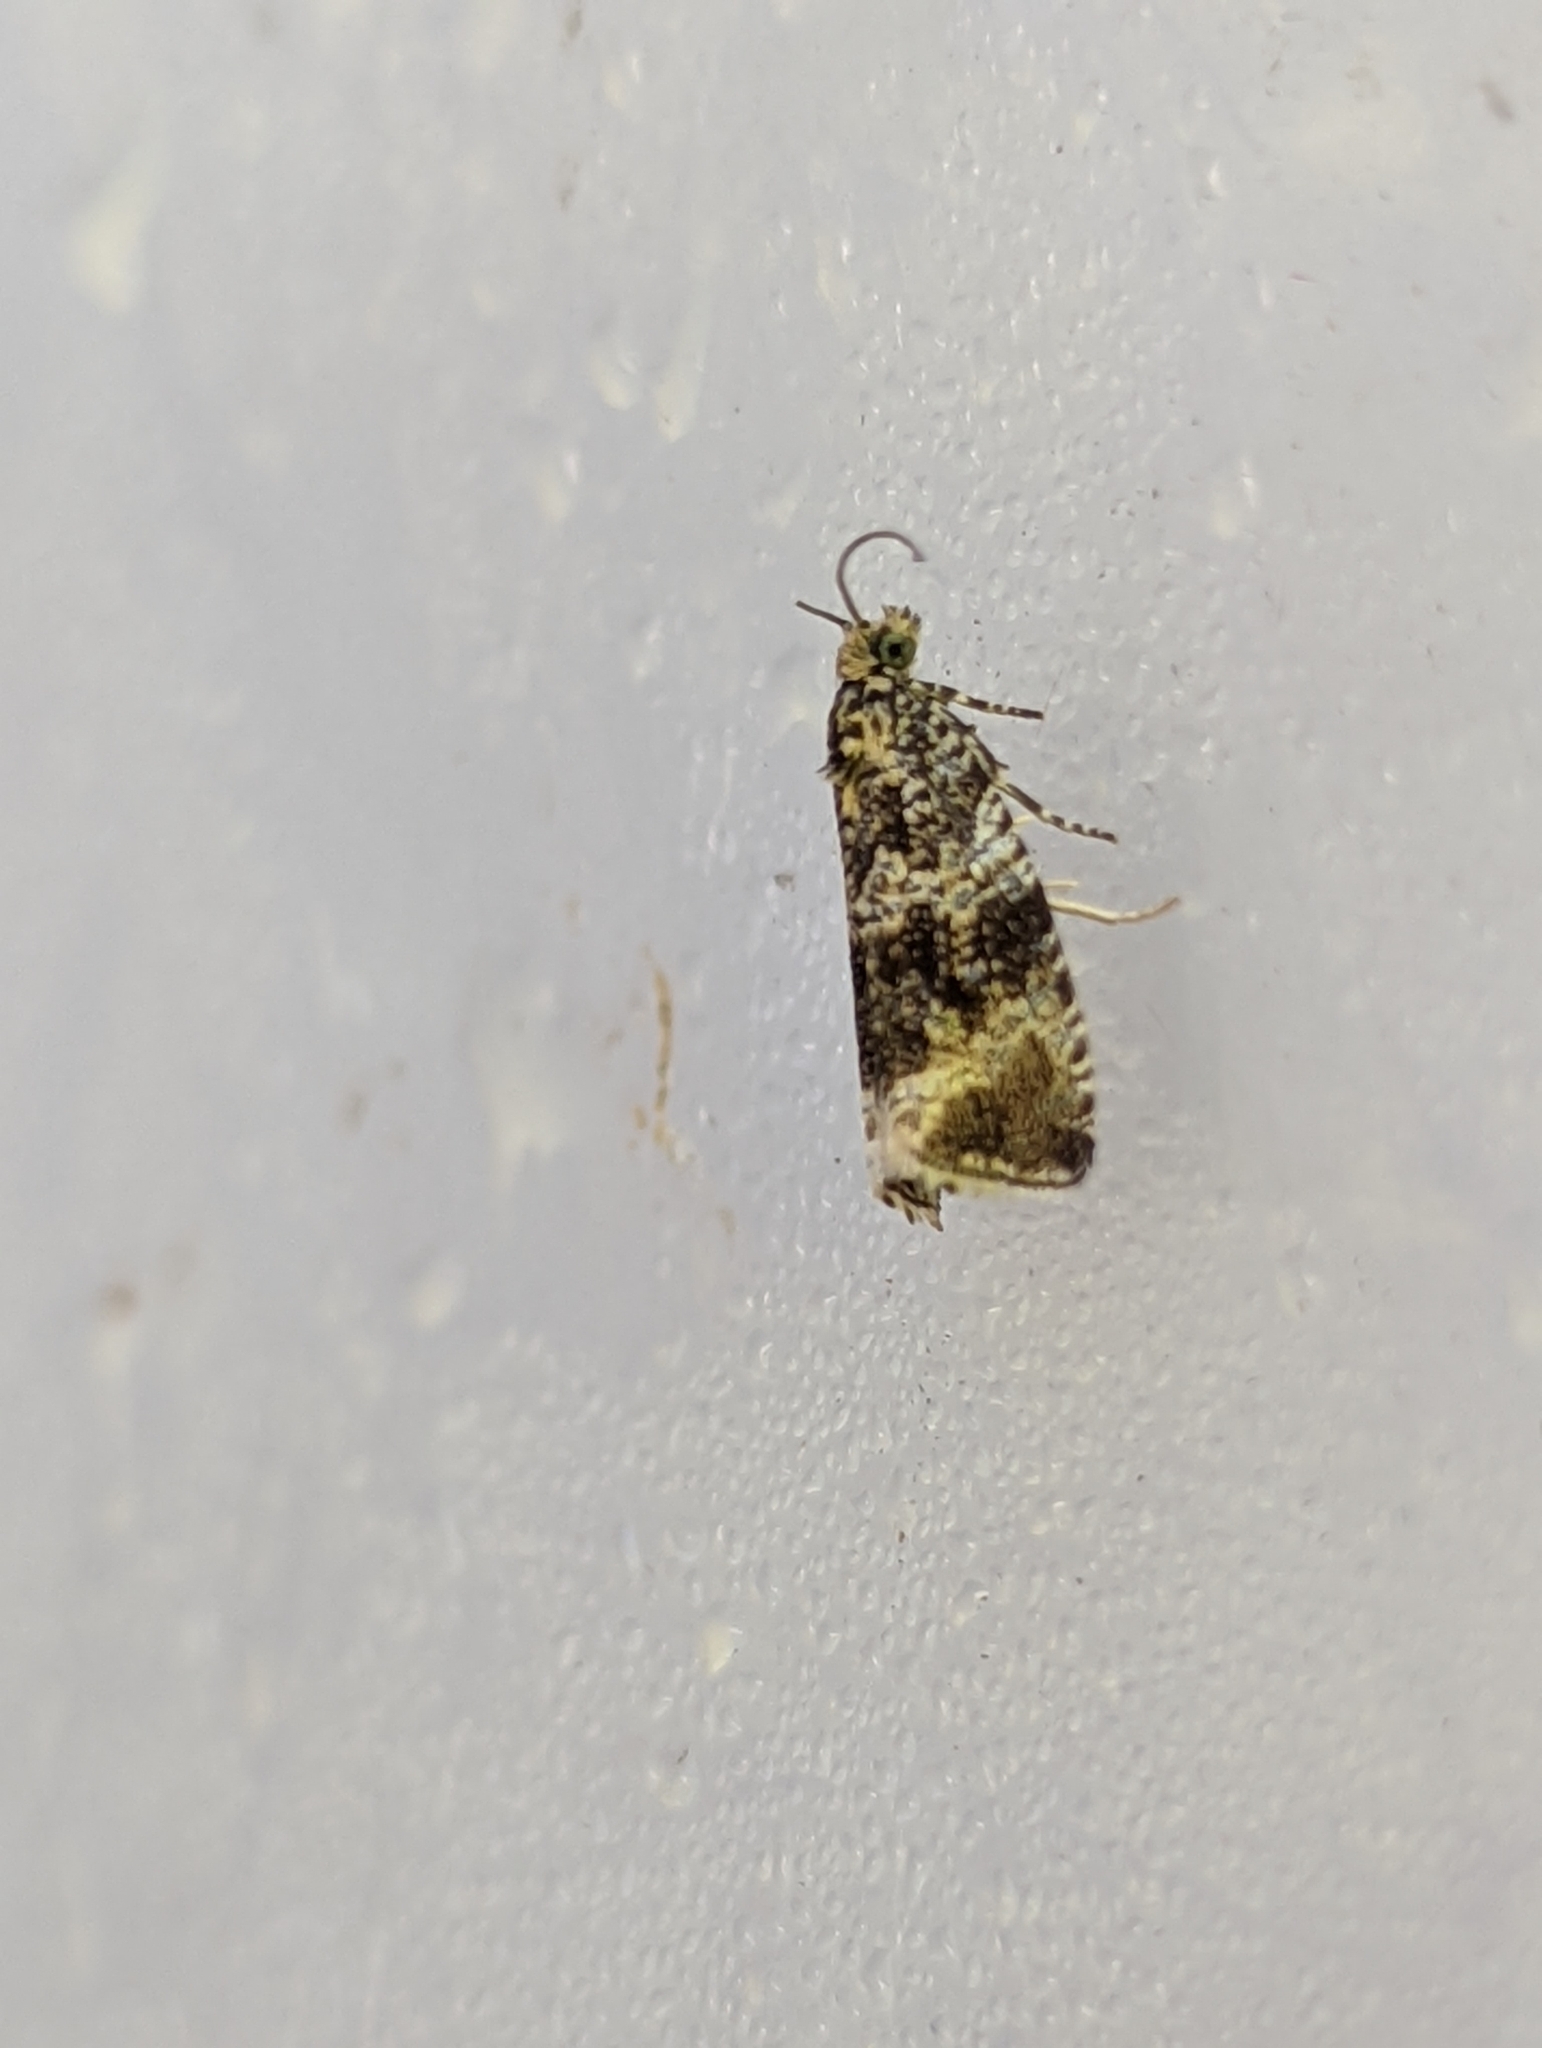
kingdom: Animalia
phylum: Arthropoda
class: Insecta
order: Lepidoptera
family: Tortricidae
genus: Syricoris
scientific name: Syricoris lacunana
